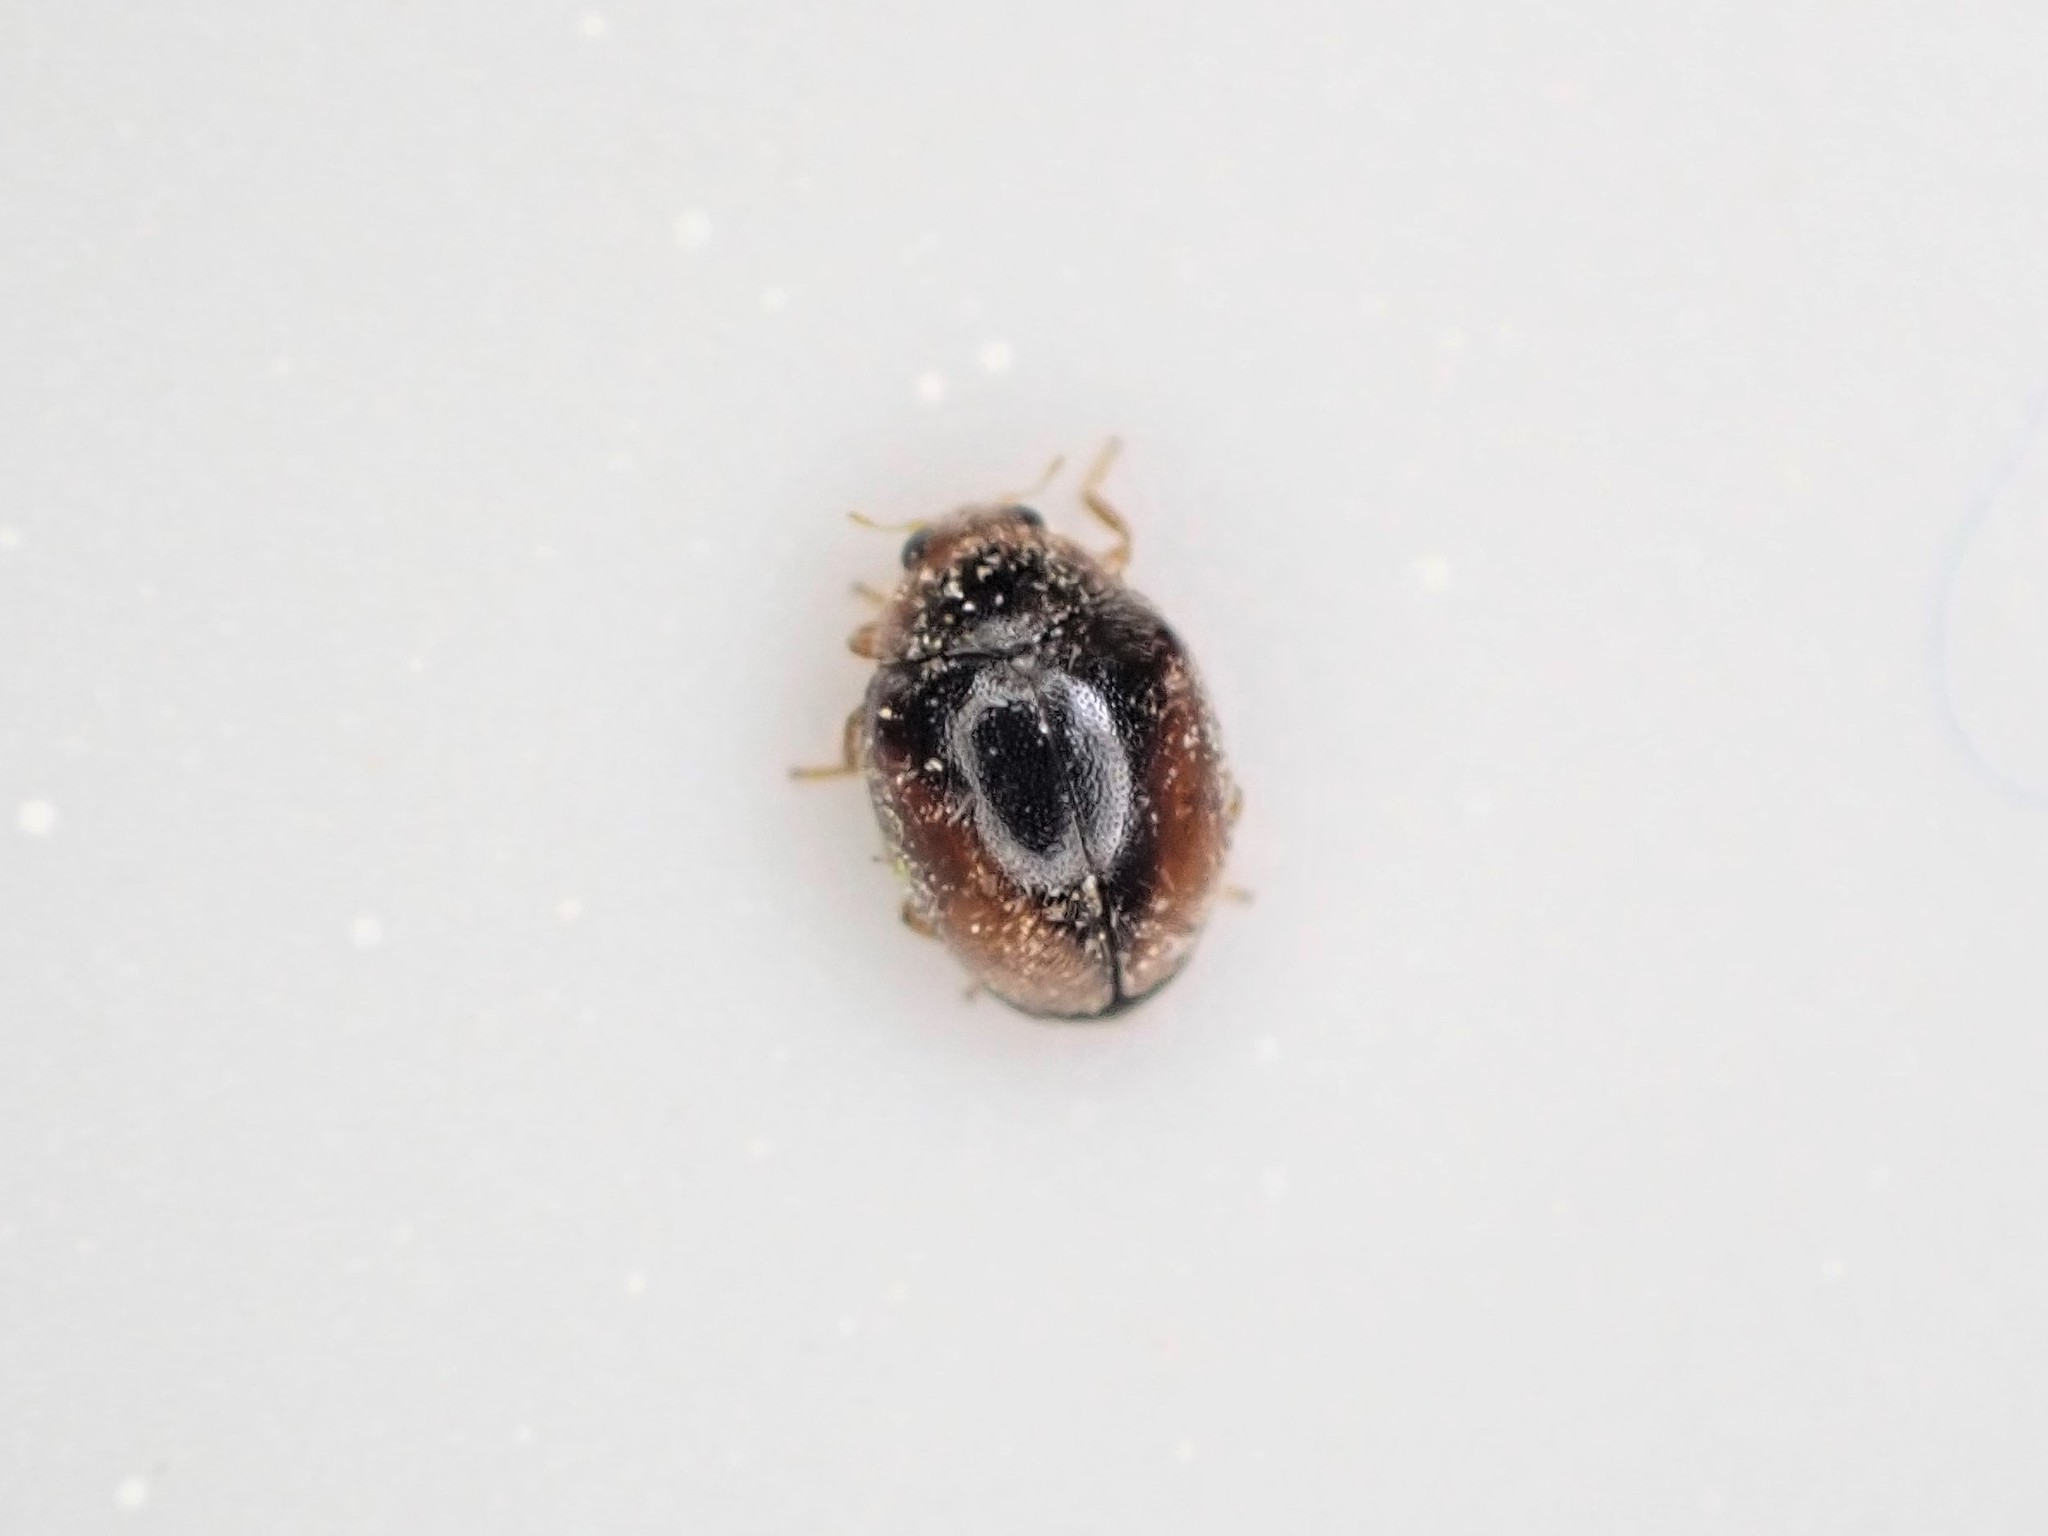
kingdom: Animalia
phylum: Arthropoda
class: Insecta
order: Coleoptera
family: Coccinellidae
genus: Scymnus
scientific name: Scymnus loewii
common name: Dusky lady beetle
